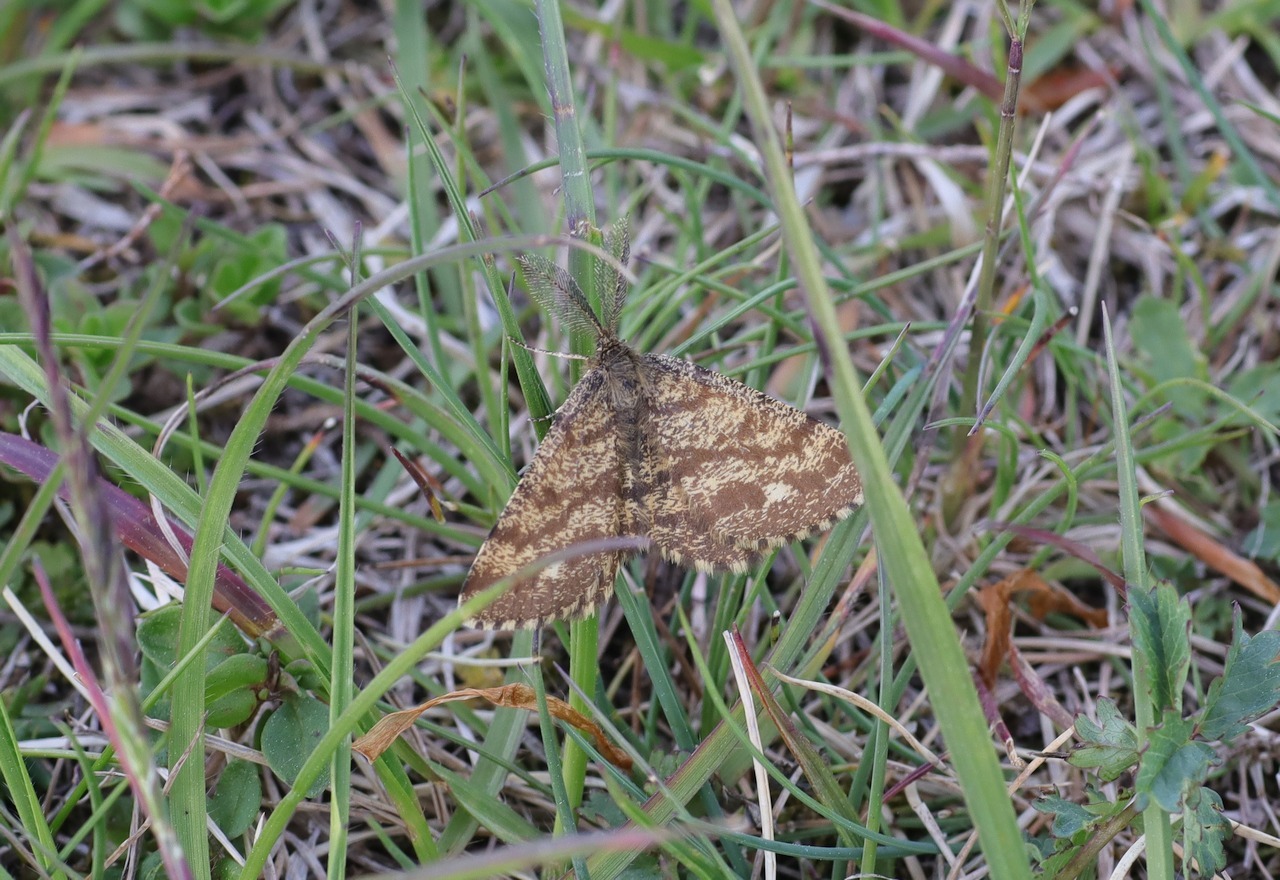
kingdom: Animalia
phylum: Arthropoda
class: Insecta
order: Lepidoptera
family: Geometridae
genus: Ematurga
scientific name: Ematurga atomaria
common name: Common heath
